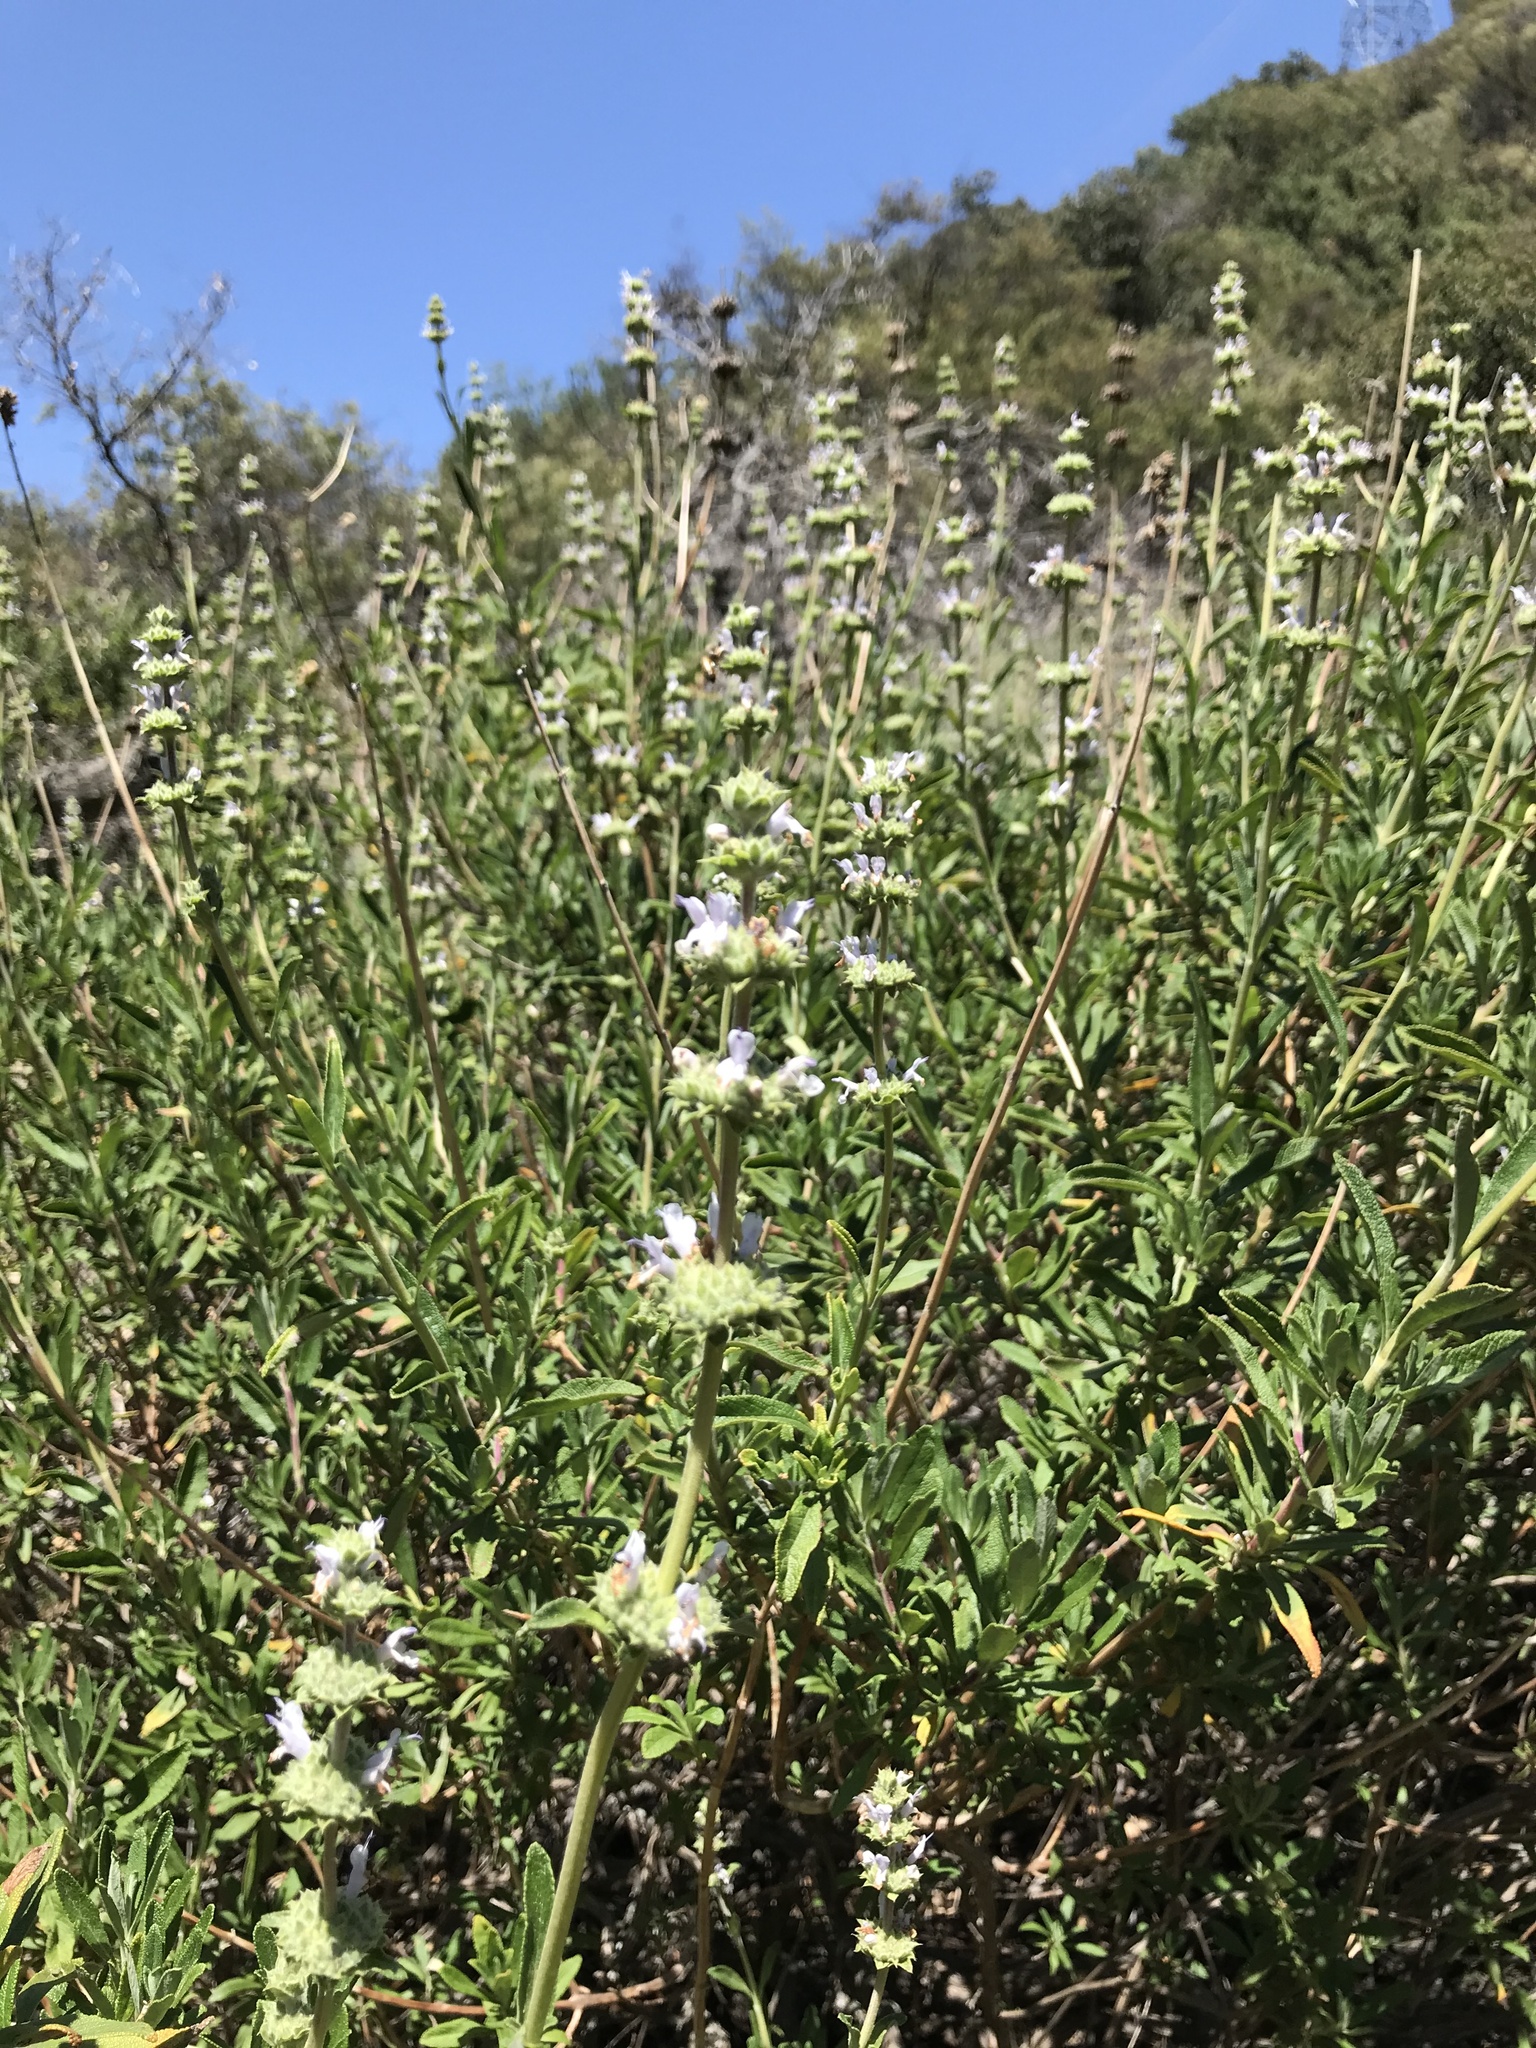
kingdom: Plantae
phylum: Tracheophyta
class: Magnoliopsida
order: Lamiales
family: Lamiaceae
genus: Salvia
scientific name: Salvia mellifera
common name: Black sage
